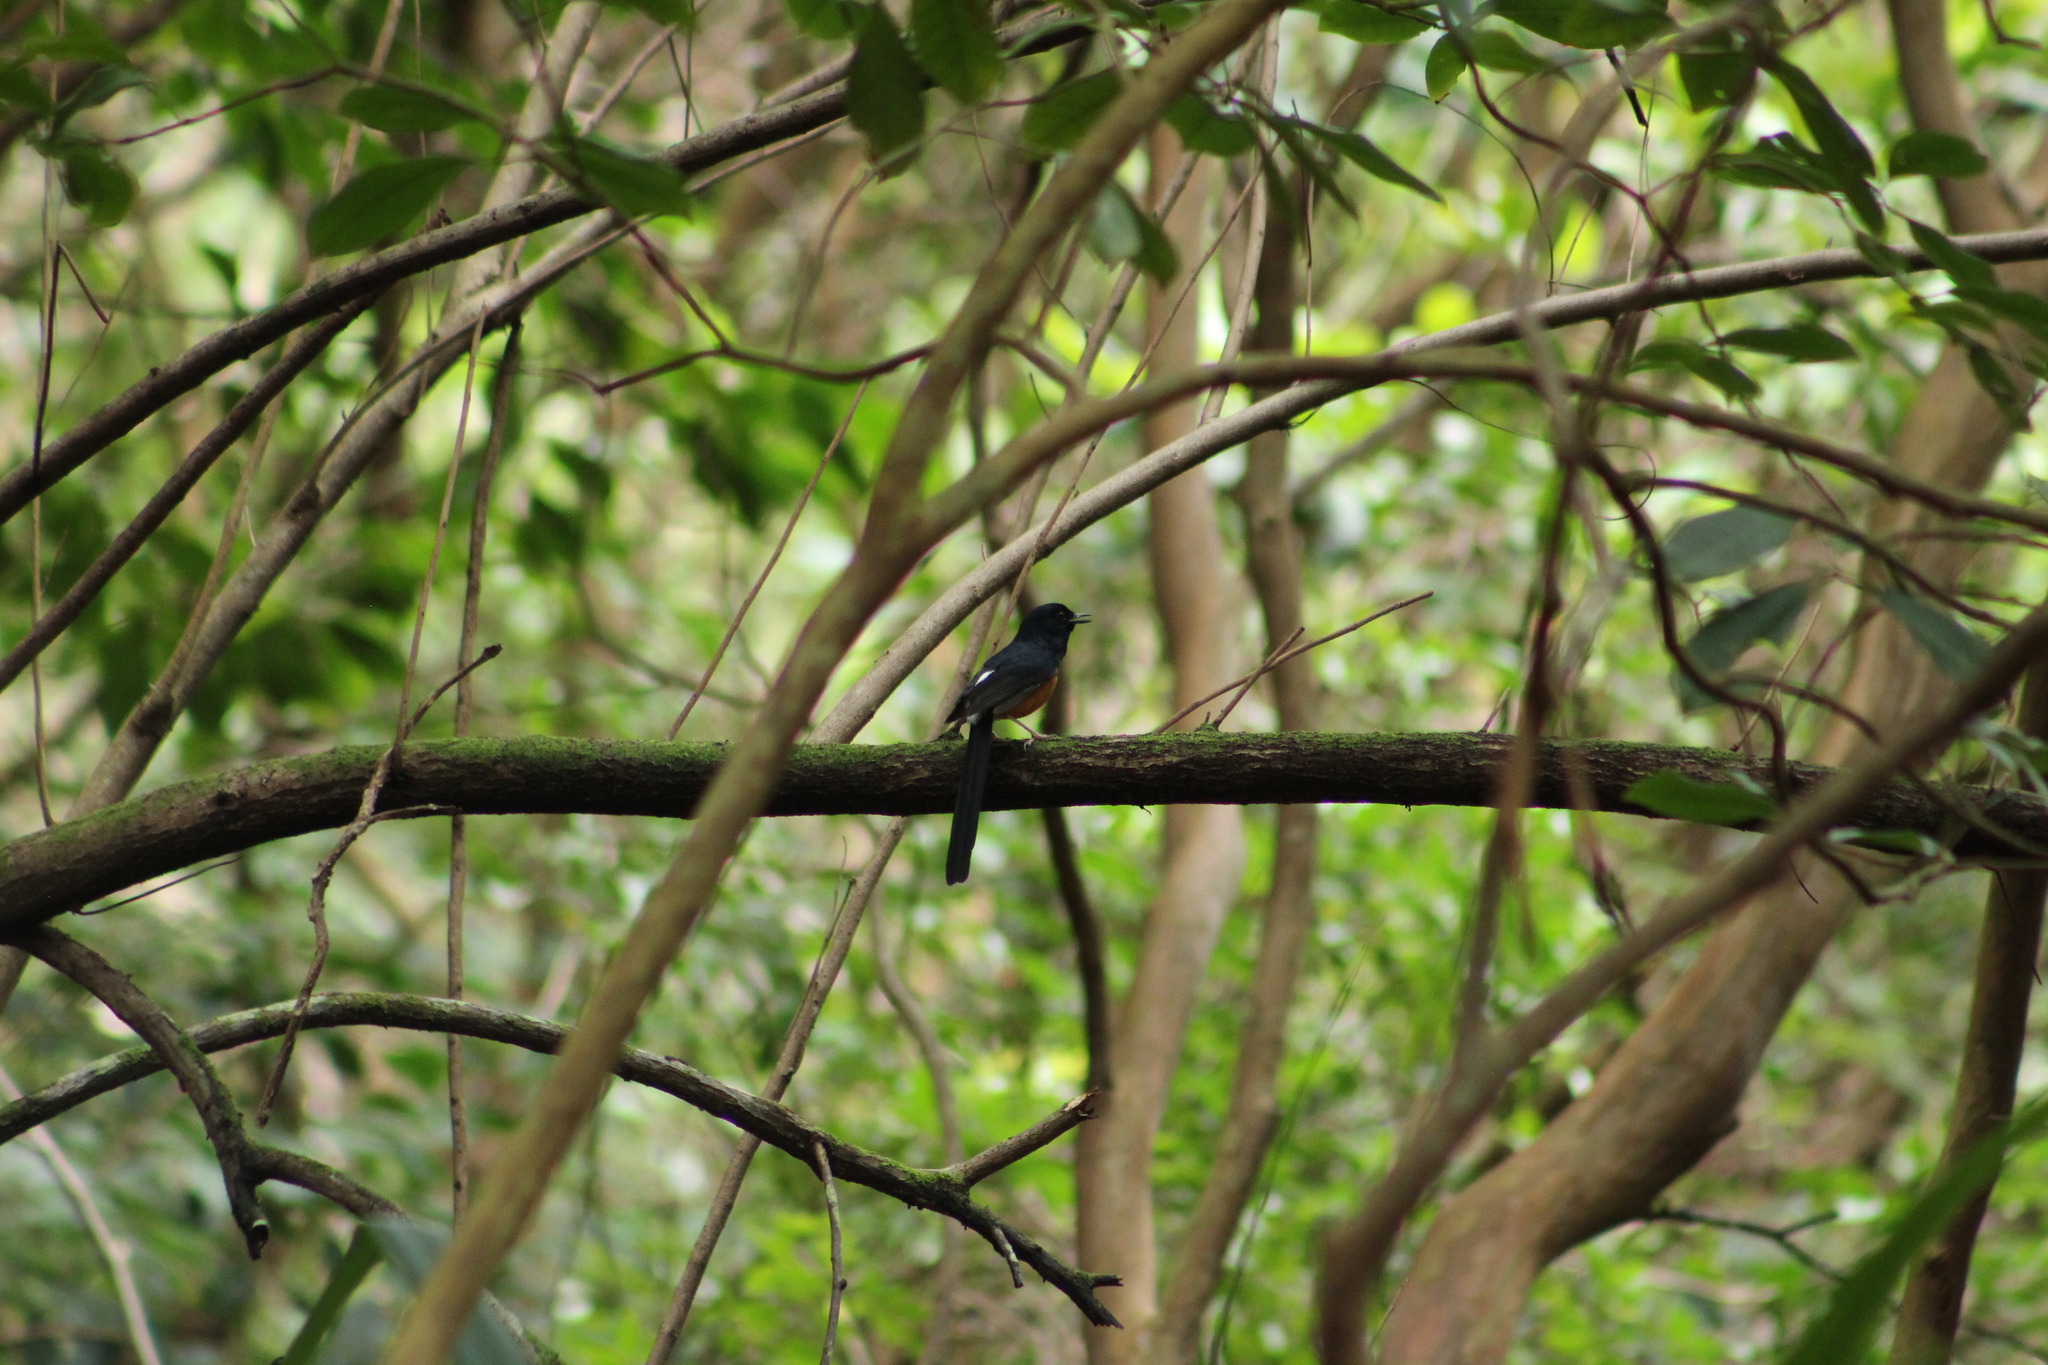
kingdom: Animalia
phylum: Chordata
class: Aves
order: Passeriformes
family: Muscicapidae
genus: Copsychus
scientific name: Copsychus malabaricus
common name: White-rumped shama
